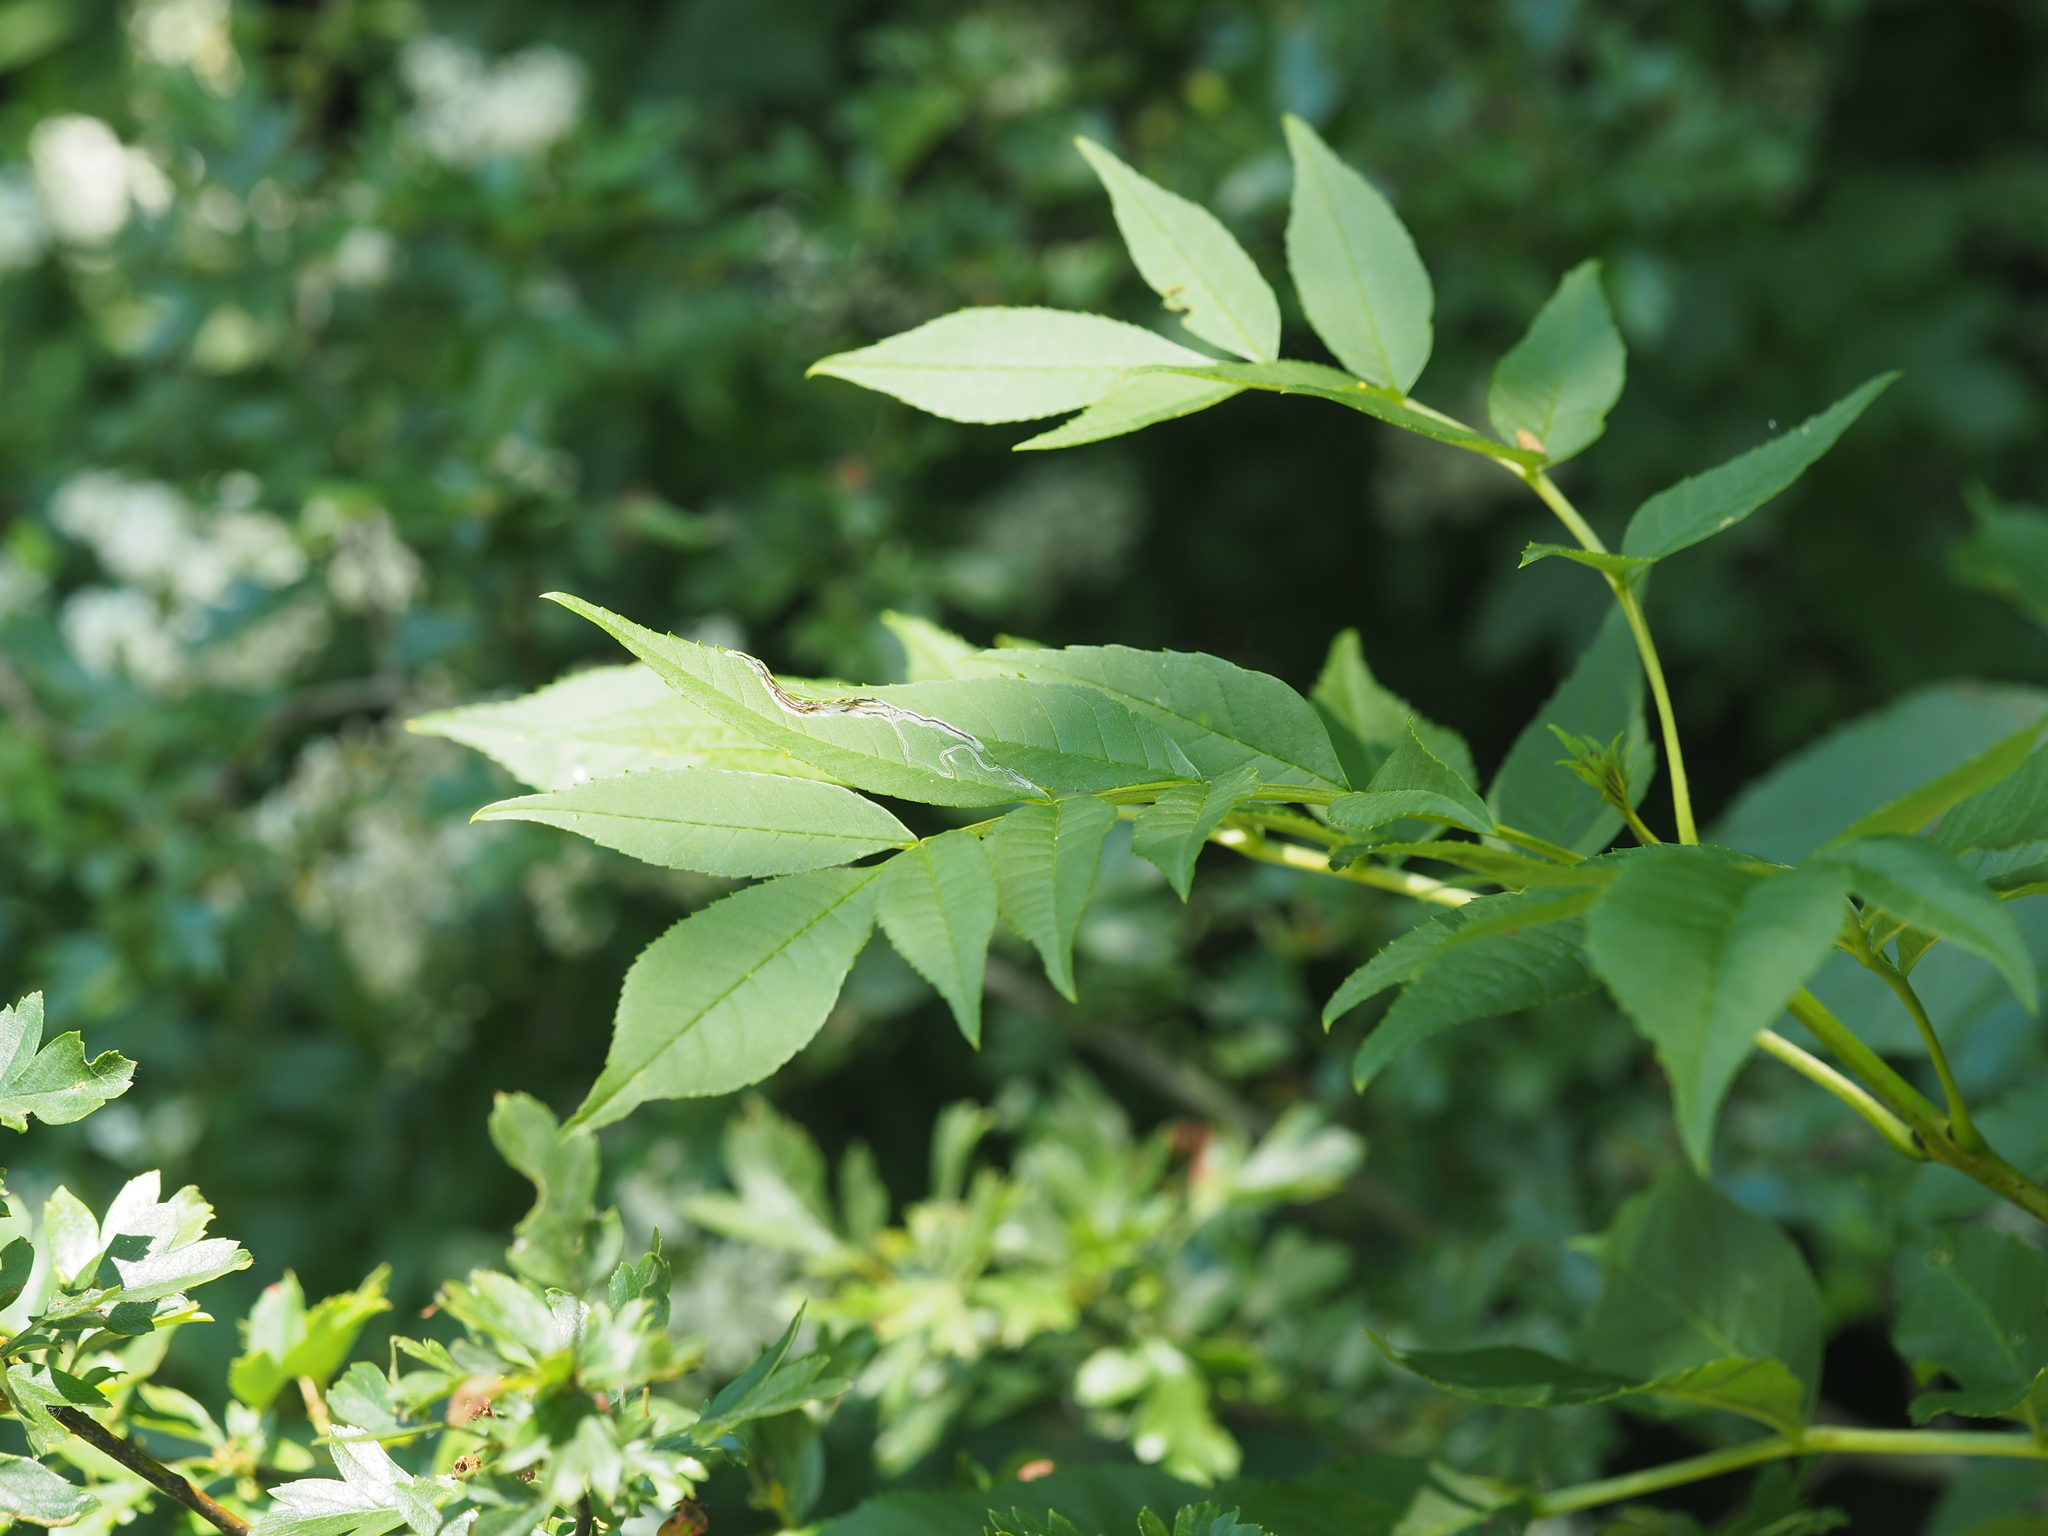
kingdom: Plantae
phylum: Tracheophyta
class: Magnoliopsida
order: Lamiales
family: Oleaceae
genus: Fraxinus
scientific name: Fraxinus excelsior
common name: European ash
